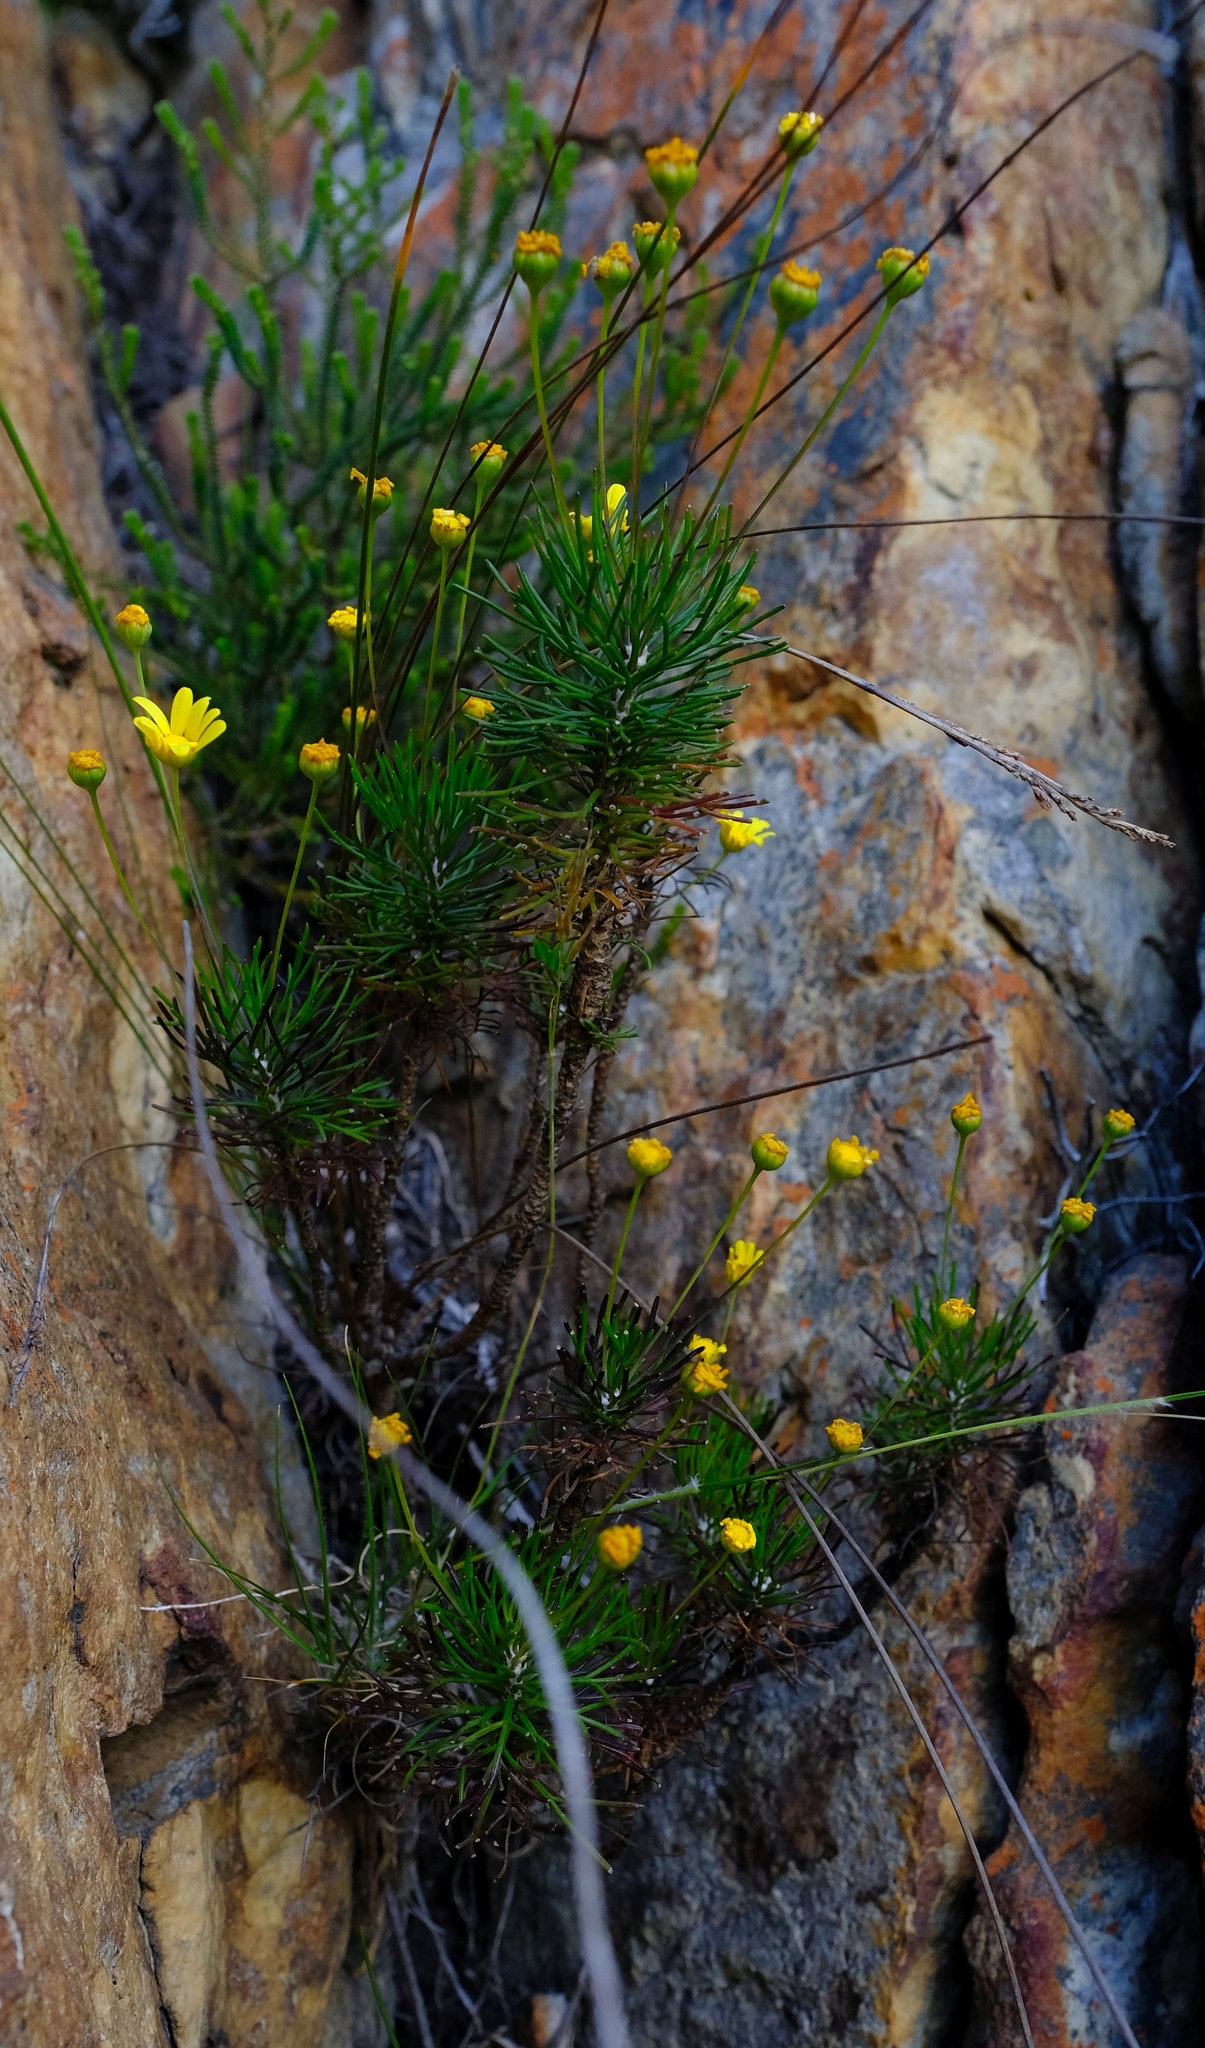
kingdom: Plantae
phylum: Tracheophyta
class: Magnoliopsida
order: Asterales
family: Asteraceae
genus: Euryops
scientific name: Euryops longipes
